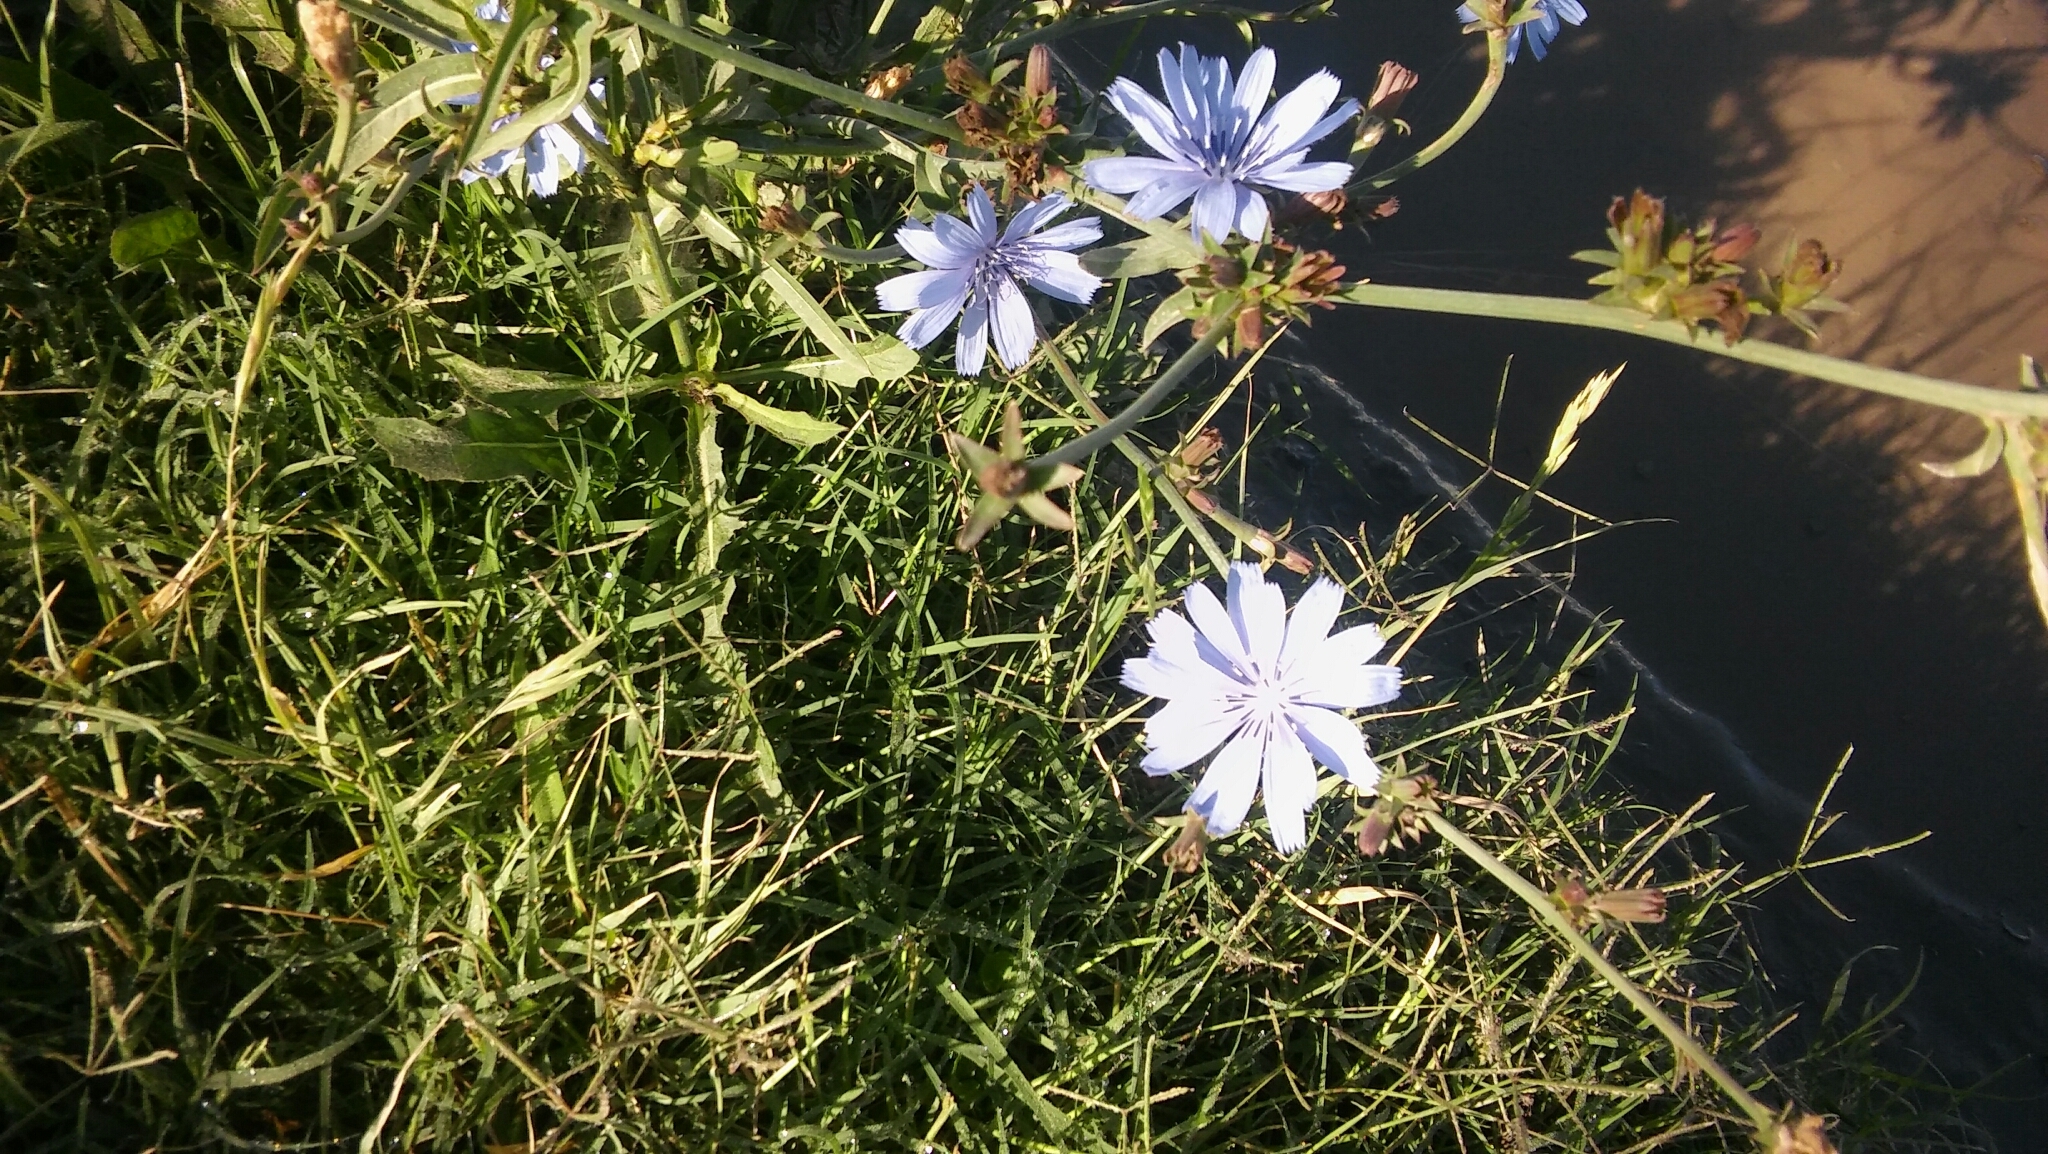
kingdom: Plantae
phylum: Tracheophyta
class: Magnoliopsida
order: Asterales
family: Asteraceae
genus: Cichorium
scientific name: Cichorium intybus
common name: Chicory
